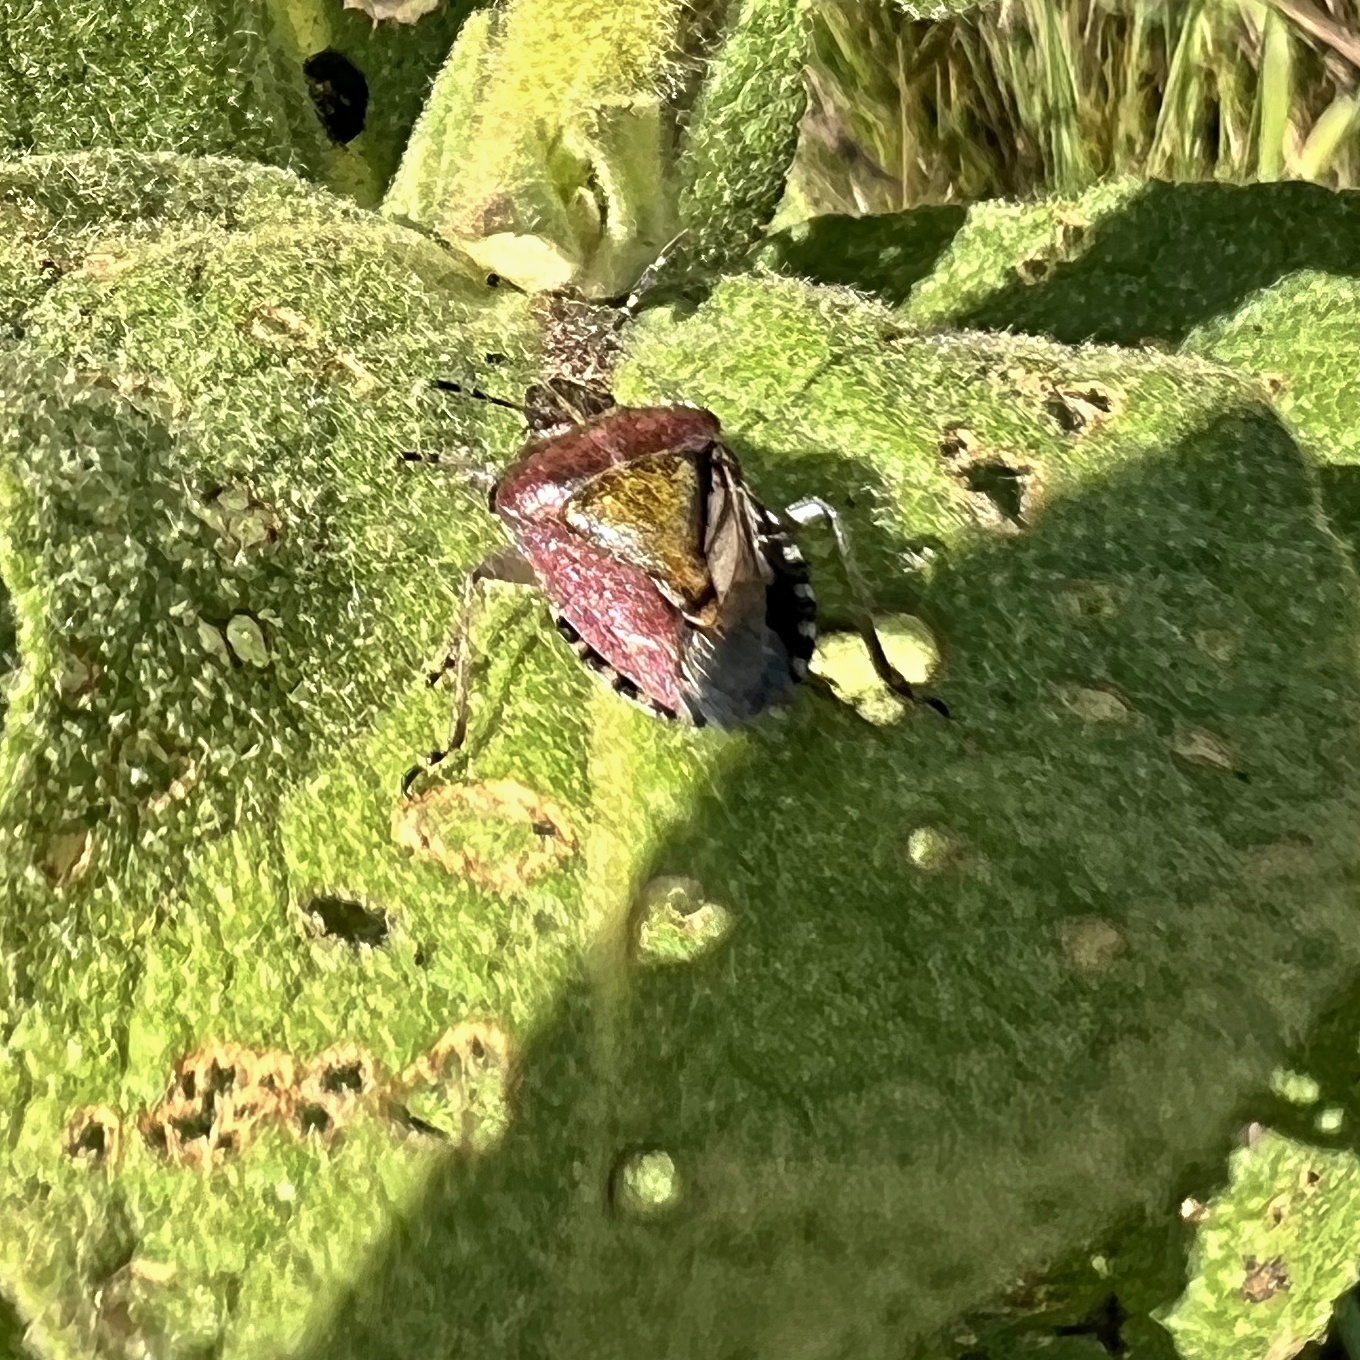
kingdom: Animalia
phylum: Arthropoda
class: Insecta
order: Hemiptera
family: Pentatomidae
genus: Dolycoris
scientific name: Dolycoris baccarum
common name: Sloe bug
